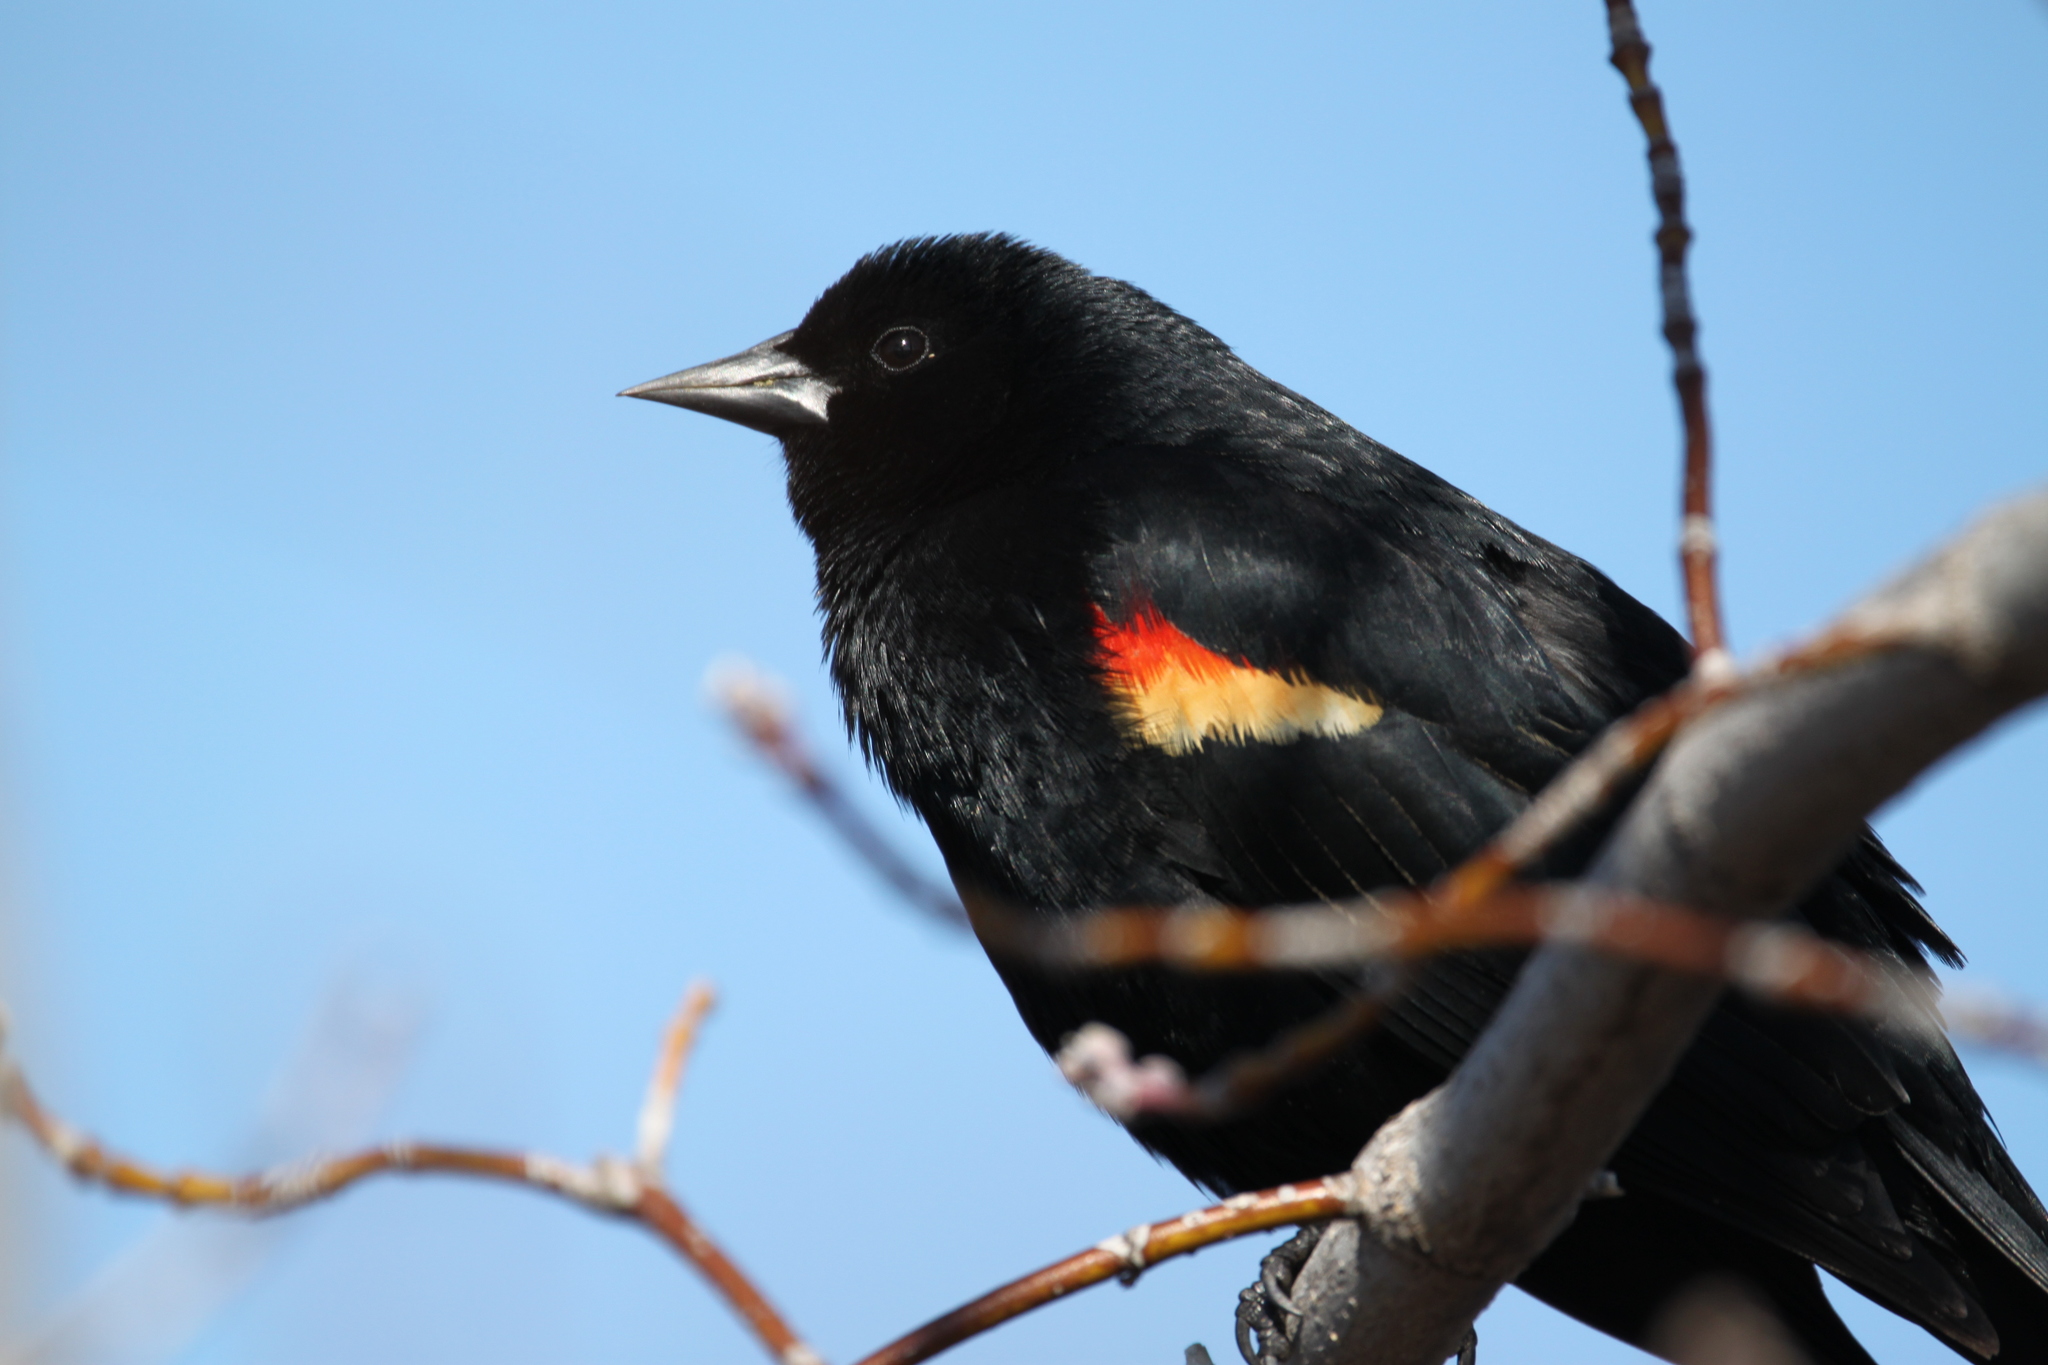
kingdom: Animalia
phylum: Chordata
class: Aves
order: Passeriformes
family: Icteridae
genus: Agelaius
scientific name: Agelaius phoeniceus
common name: Red-winged blackbird
